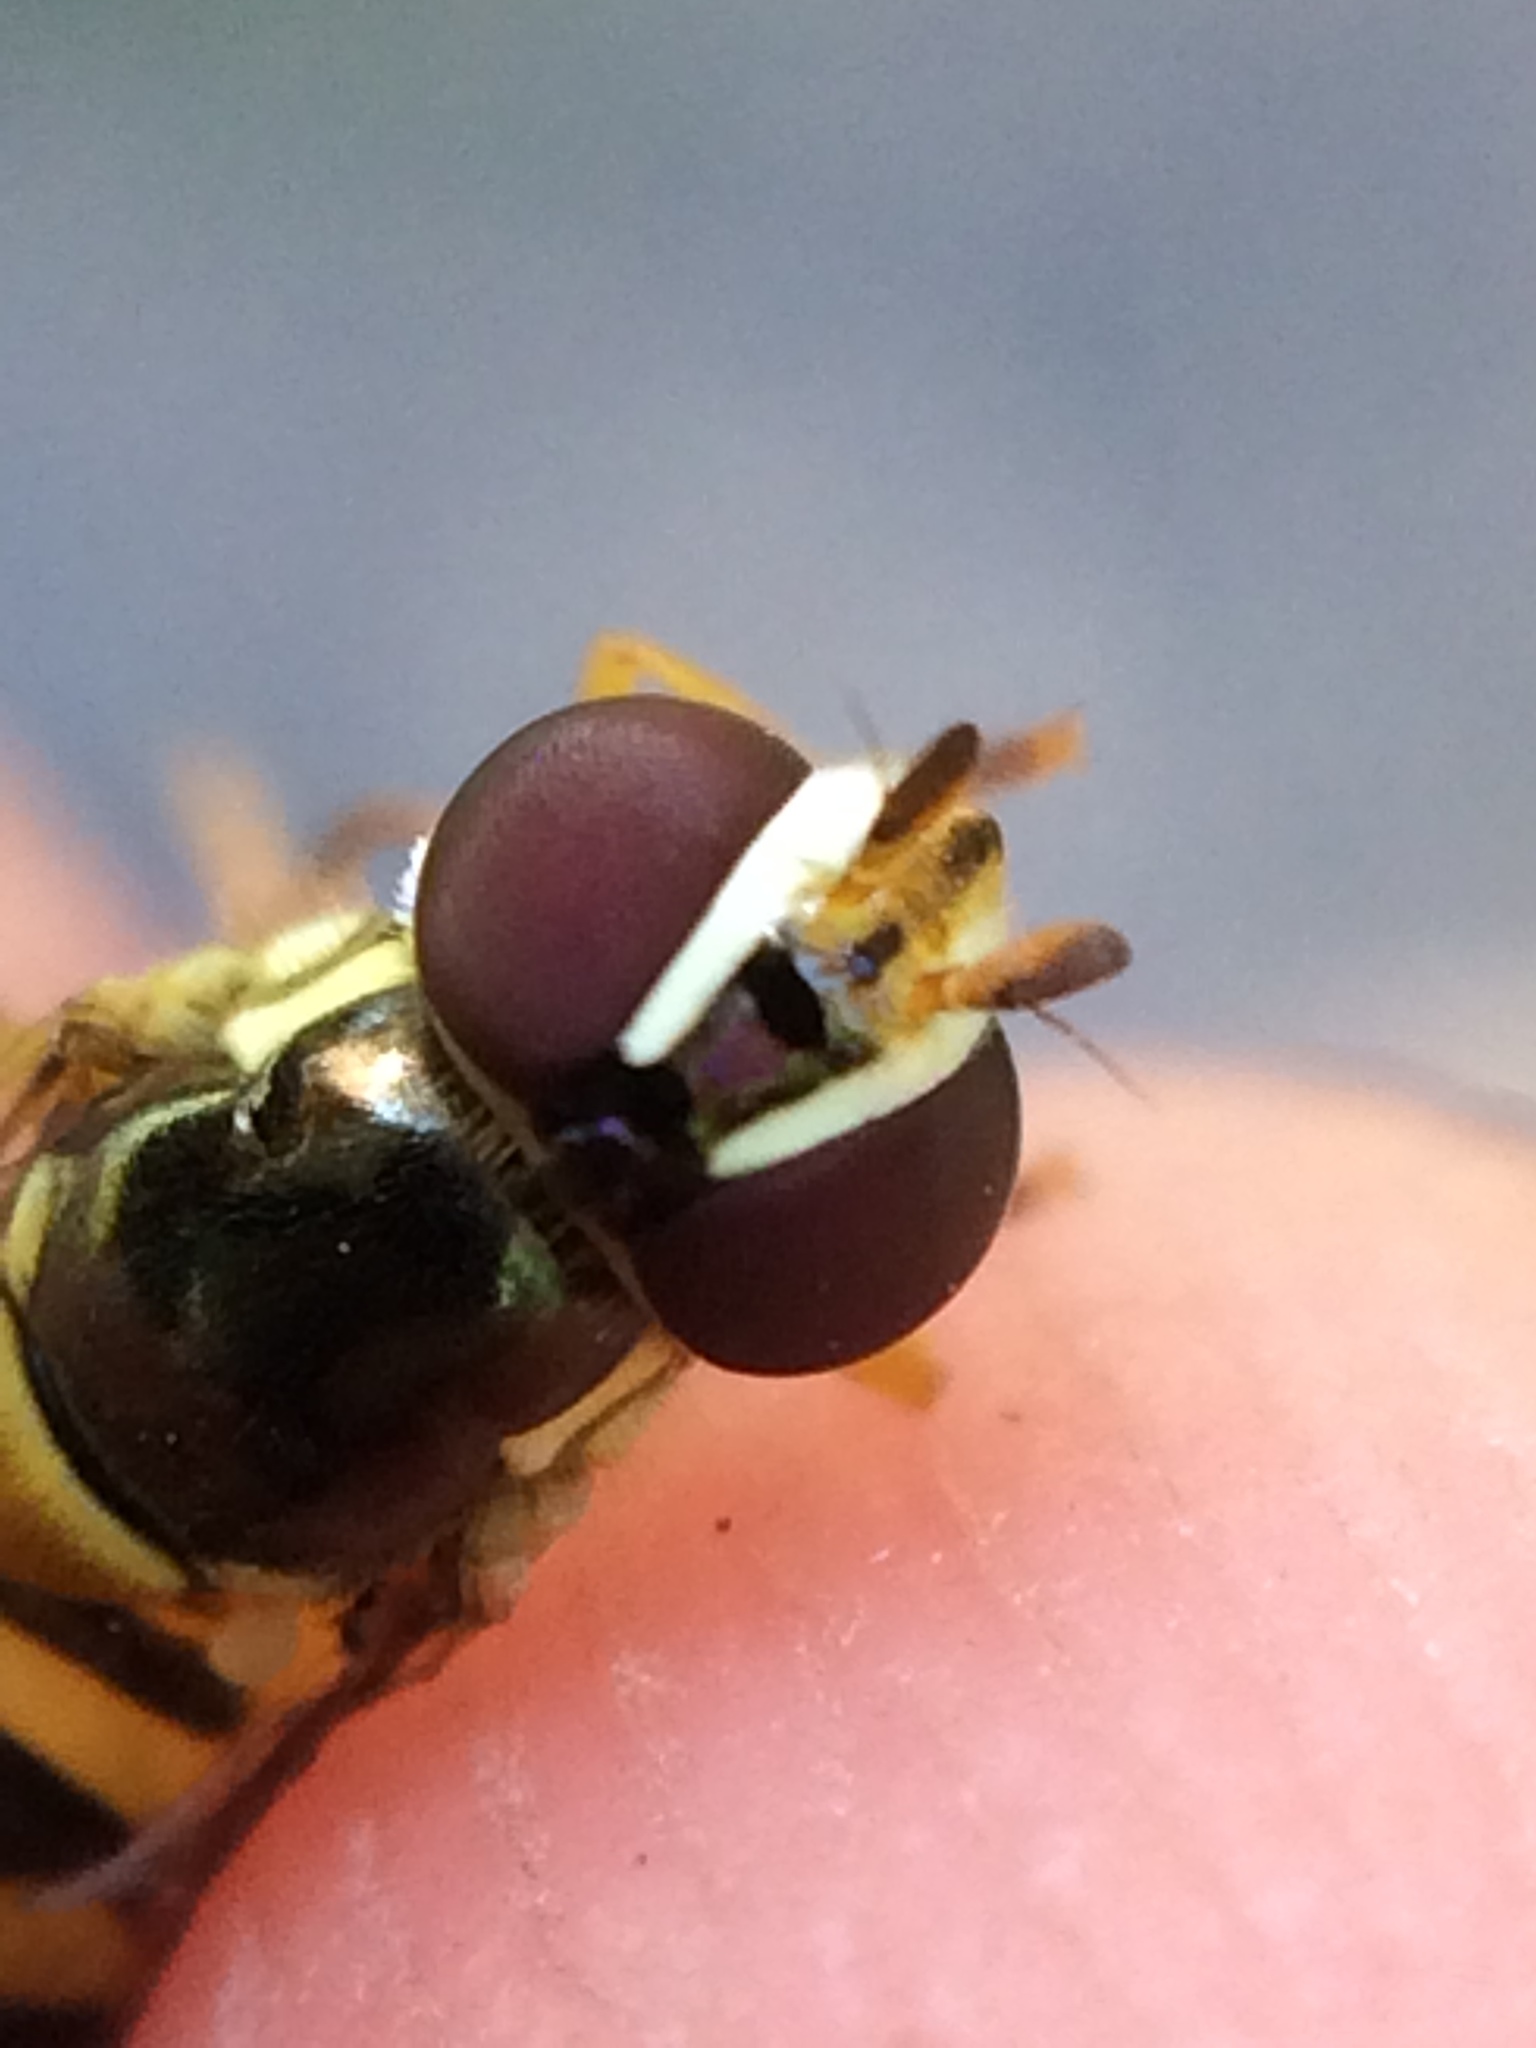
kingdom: Animalia
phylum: Arthropoda
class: Insecta
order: Diptera
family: Syrphidae
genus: Allograpta
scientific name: Allograpta obliqua
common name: Common oblique syrphid
